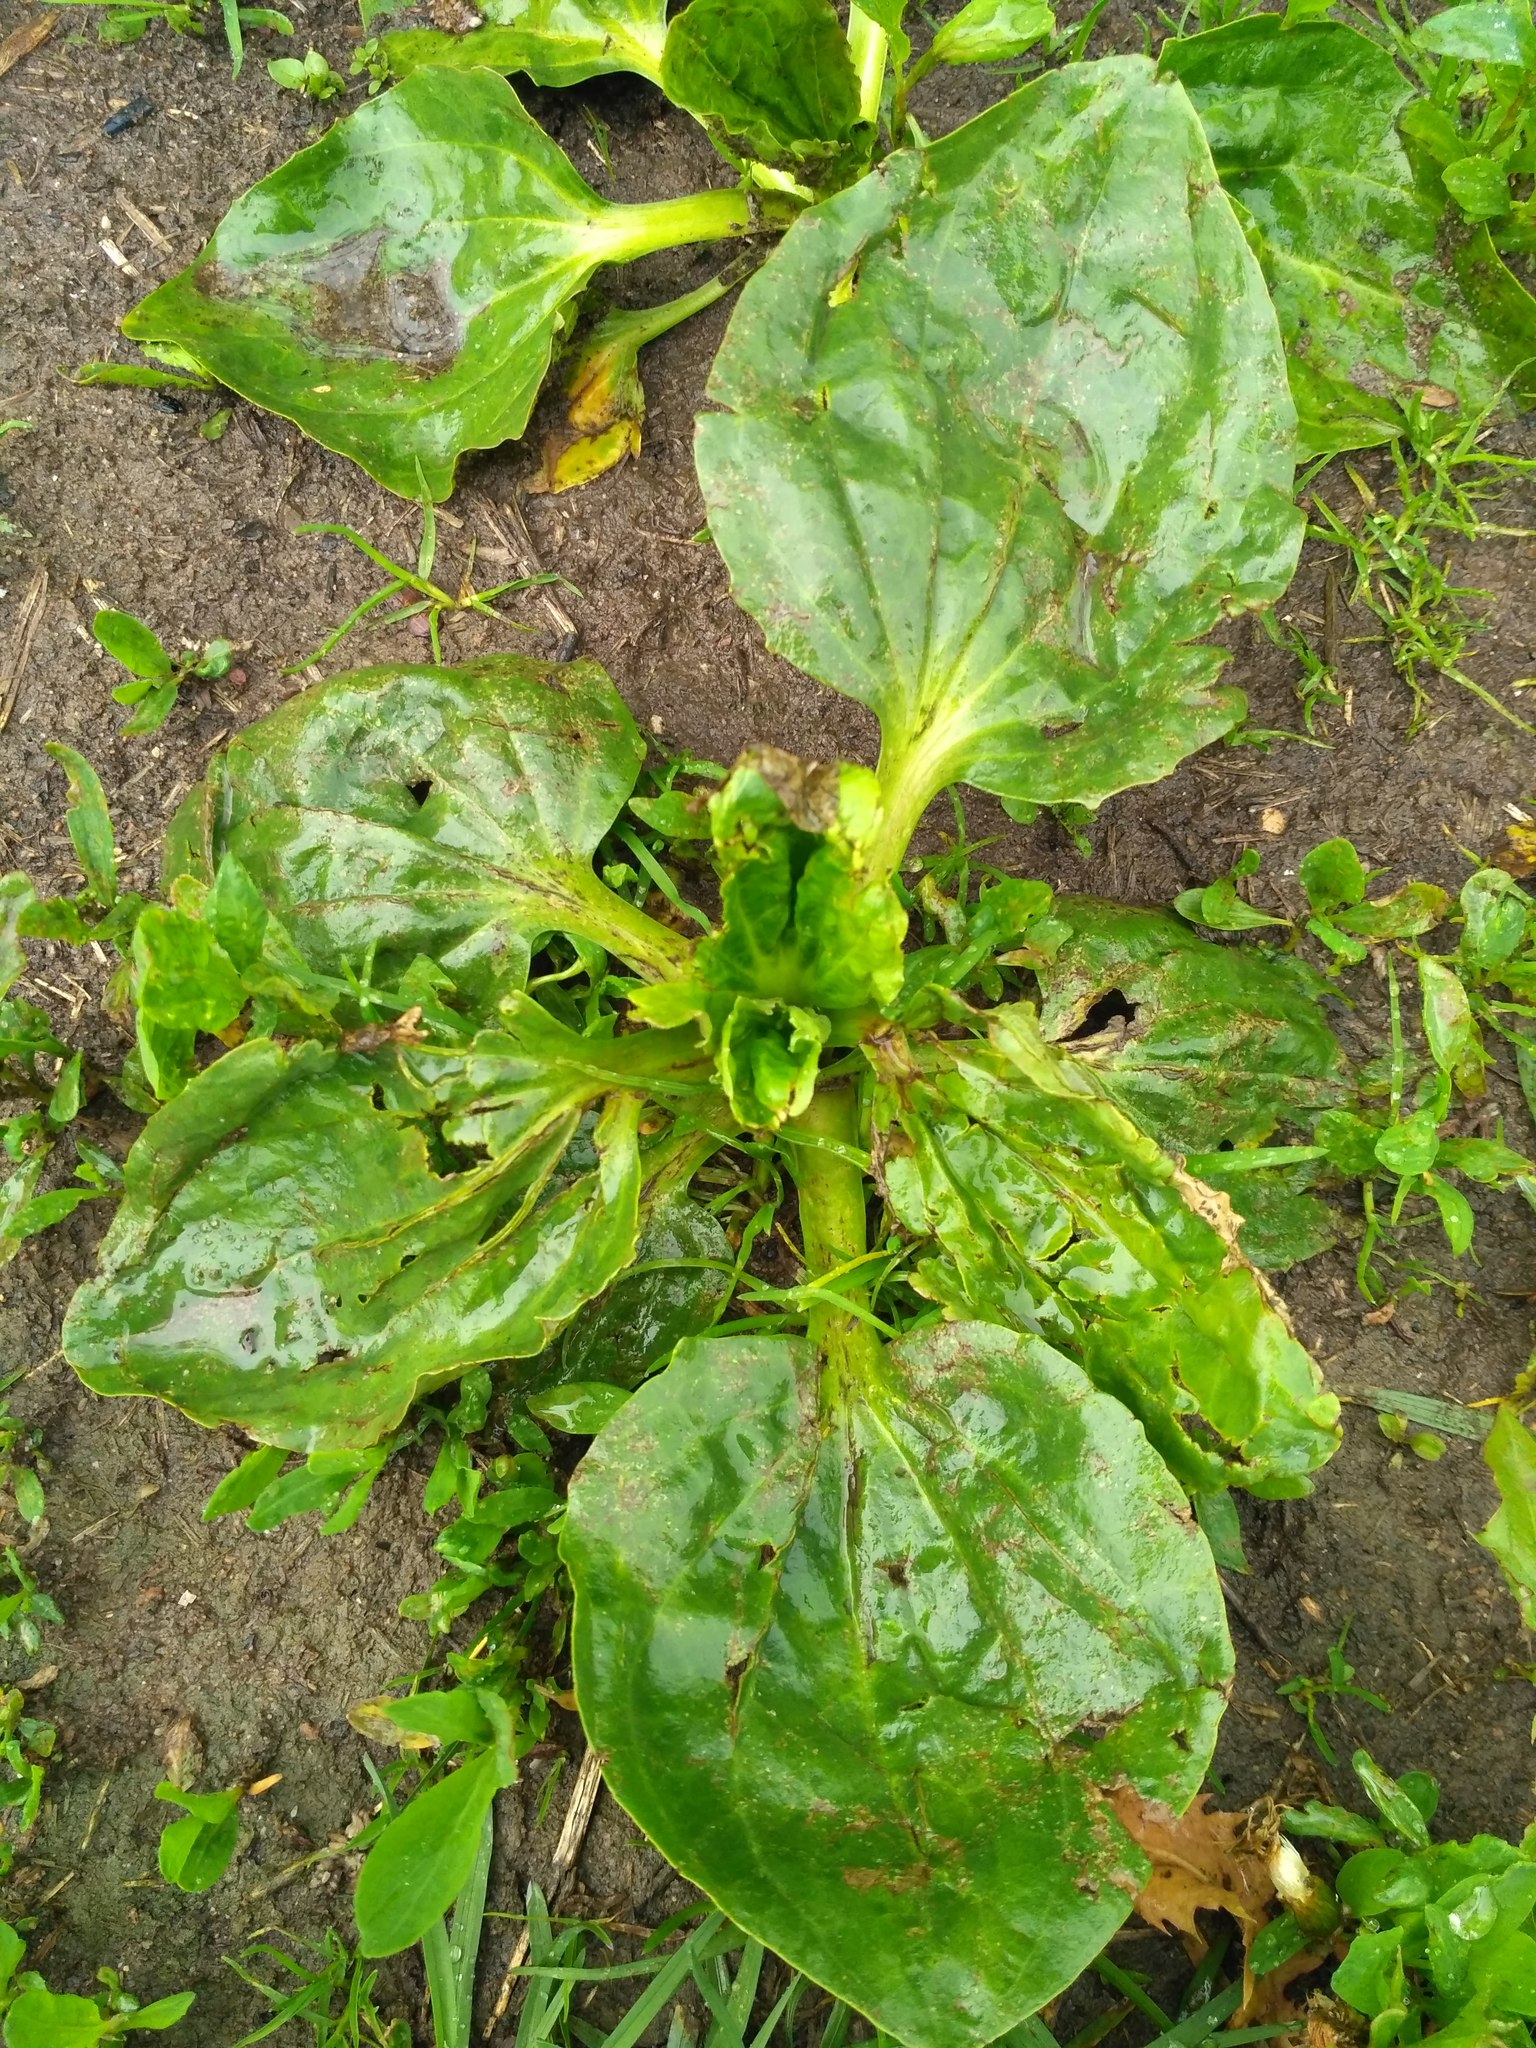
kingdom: Plantae
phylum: Tracheophyta
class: Magnoliopsida
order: Lamiales
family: Plantaginaceae
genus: Plantago
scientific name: Plantago major
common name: Common plantain
